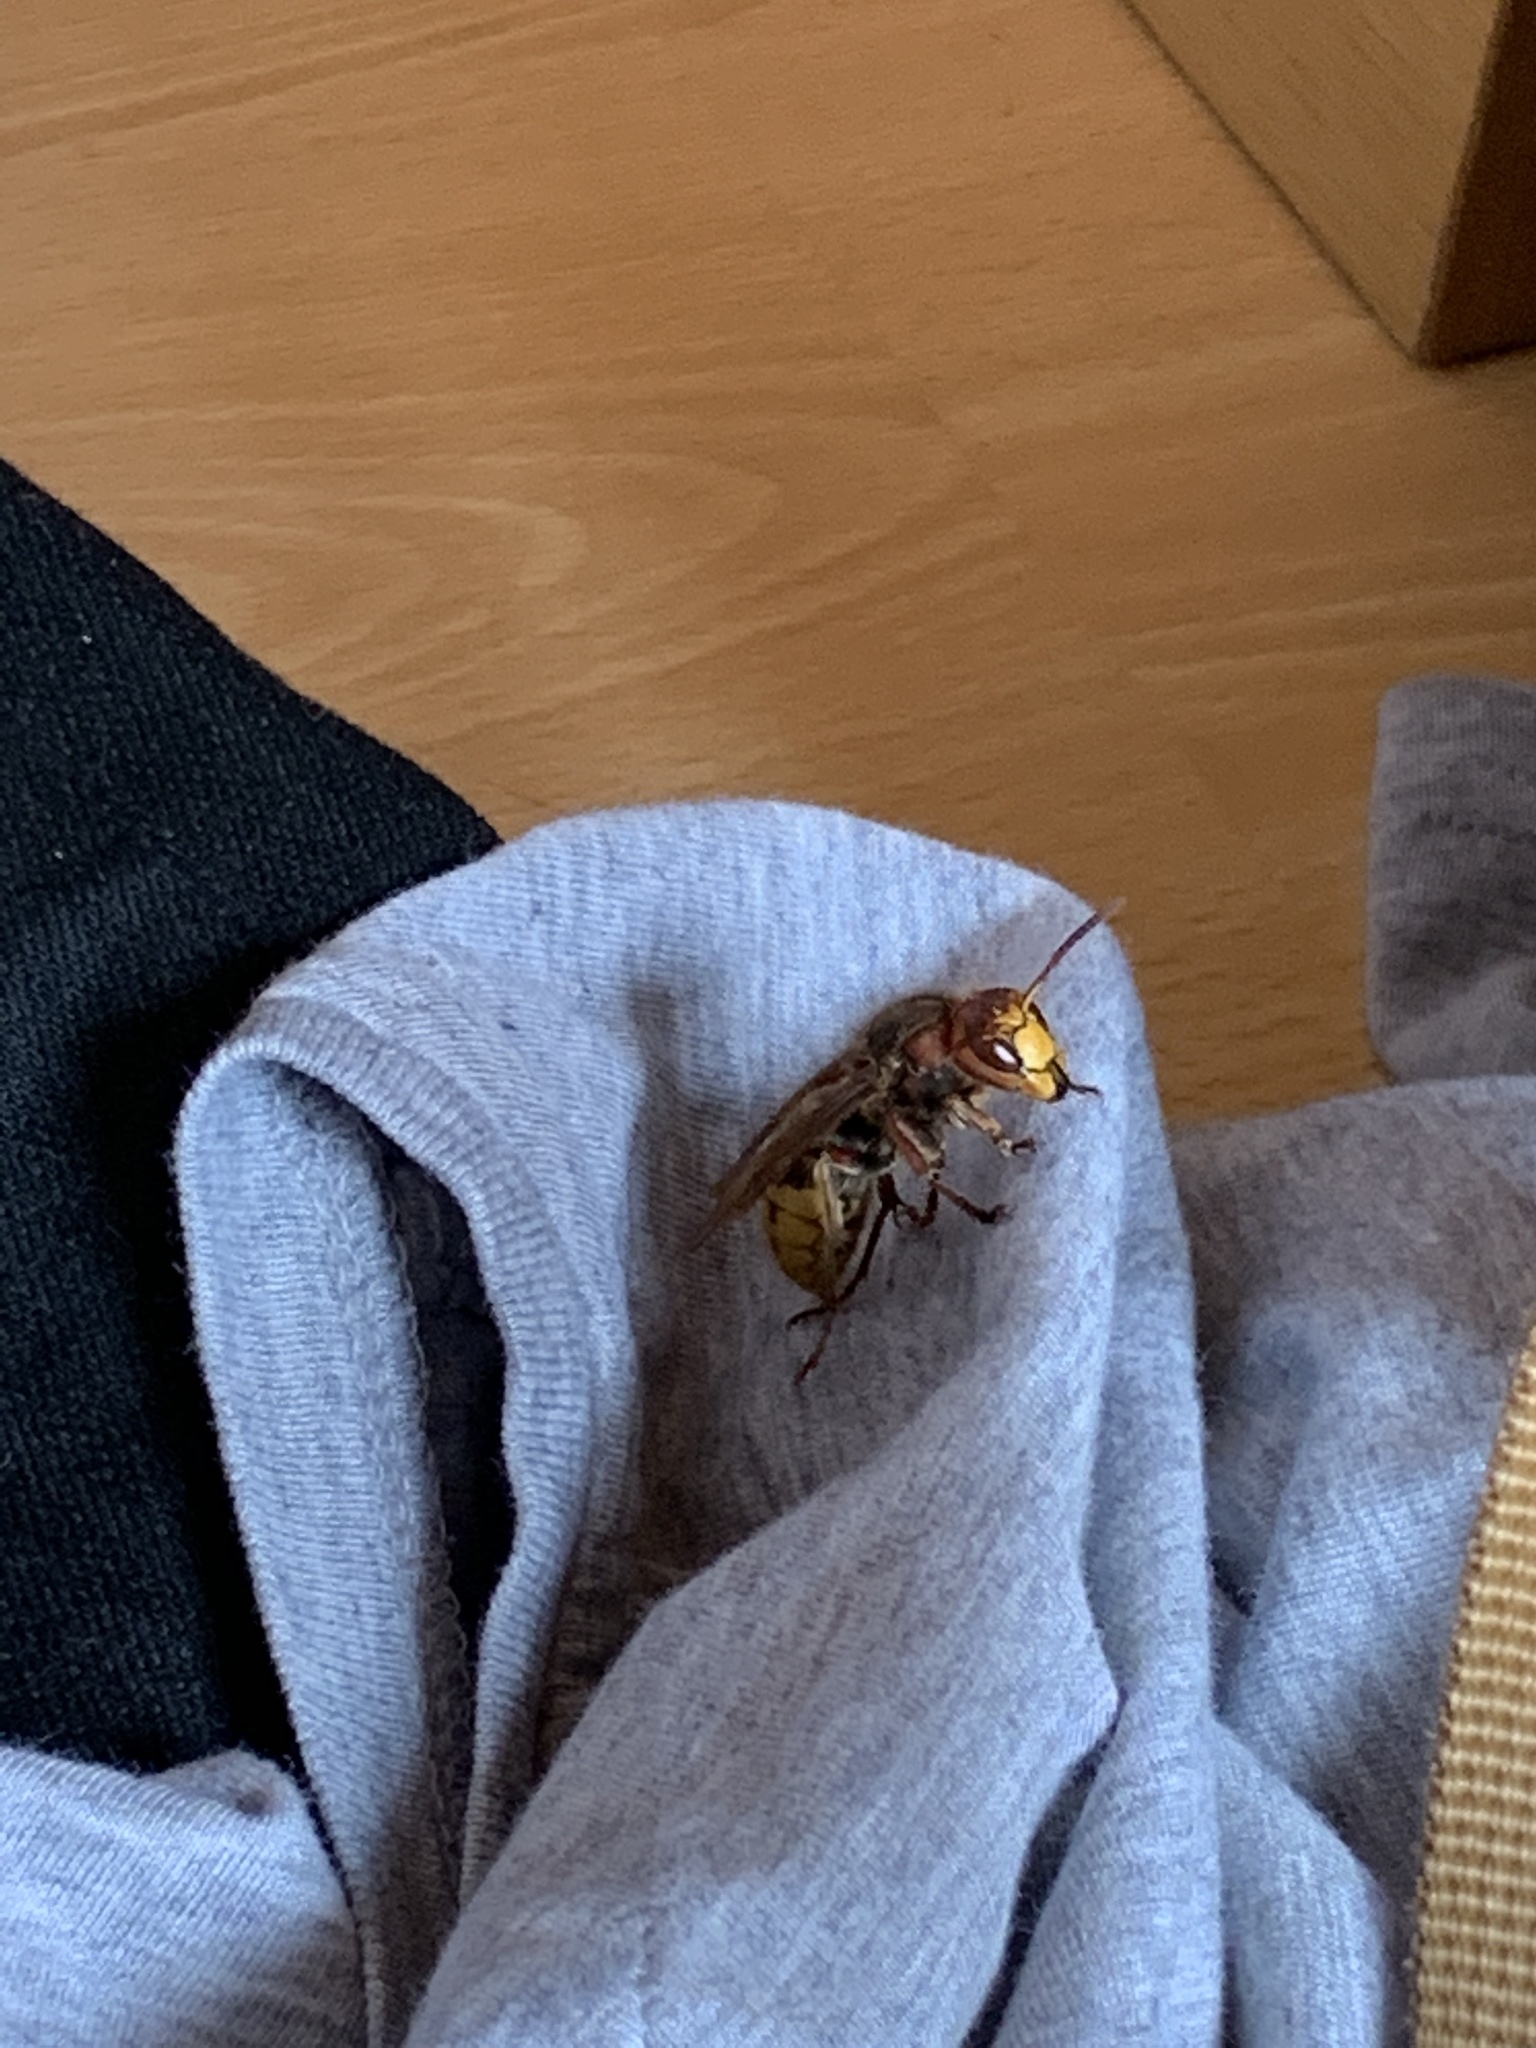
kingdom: Animalia
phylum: Arthropoda
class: Insecta
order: Hymenoptera
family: Vespidae
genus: Vespa
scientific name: Vespa crabro
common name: Hornet
